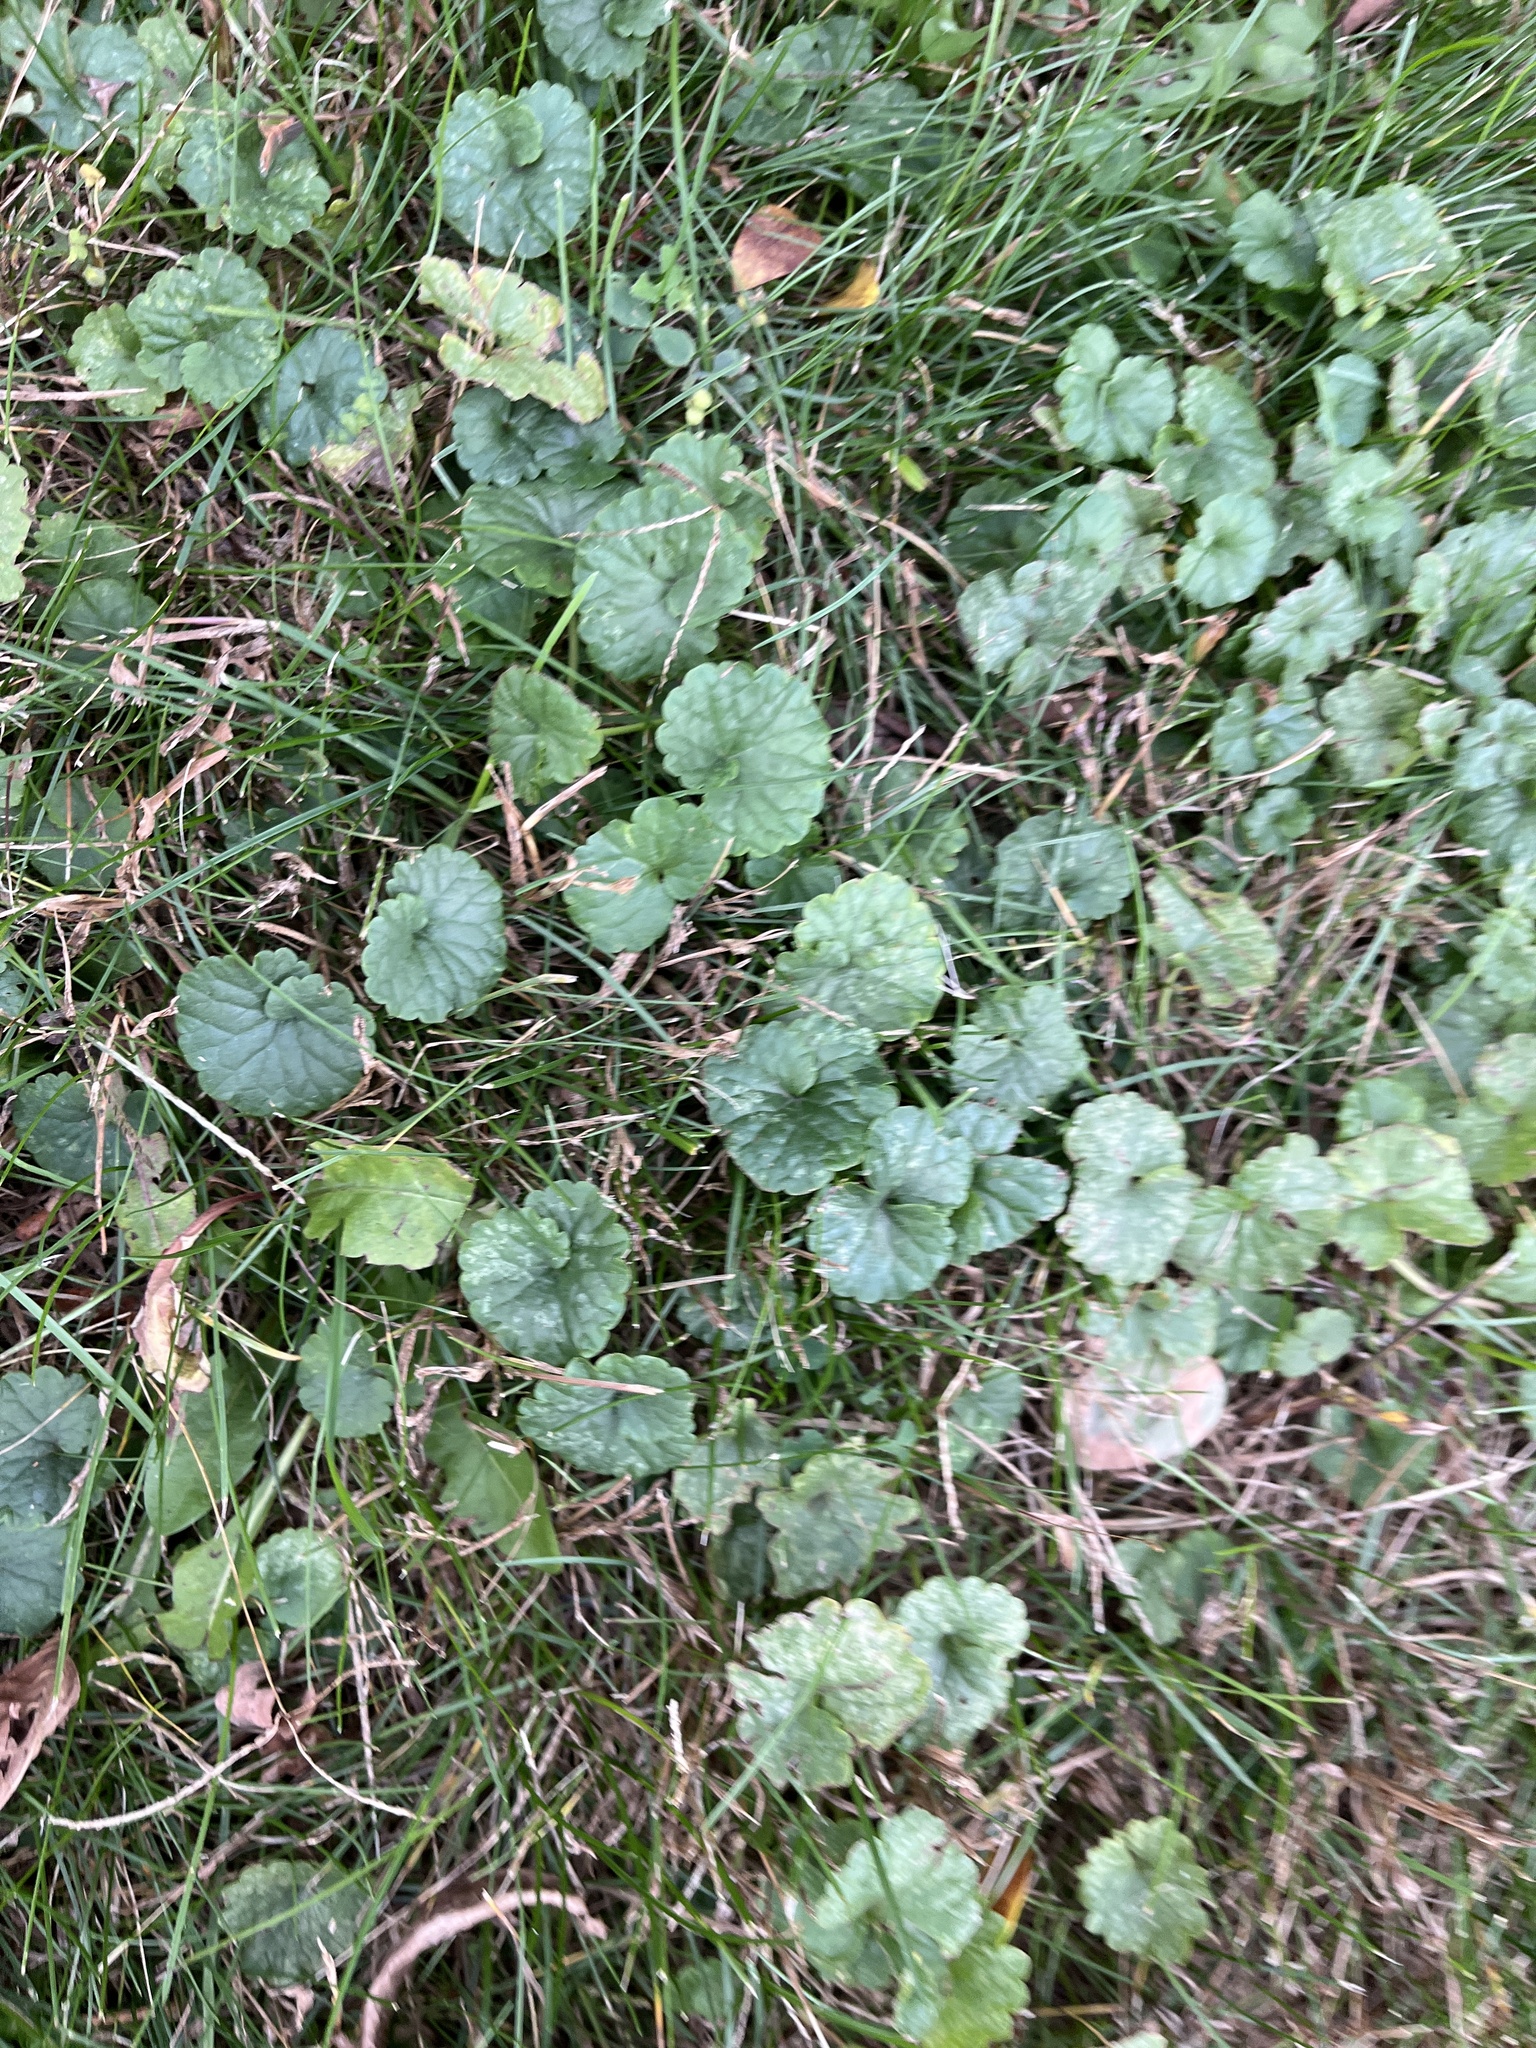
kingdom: Plantae
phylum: Tracheophyta
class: Magnoliopsida
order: Lamiales
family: Lamiaceae
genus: Glechoma
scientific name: Glechoma hederacea
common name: Ground ivy
